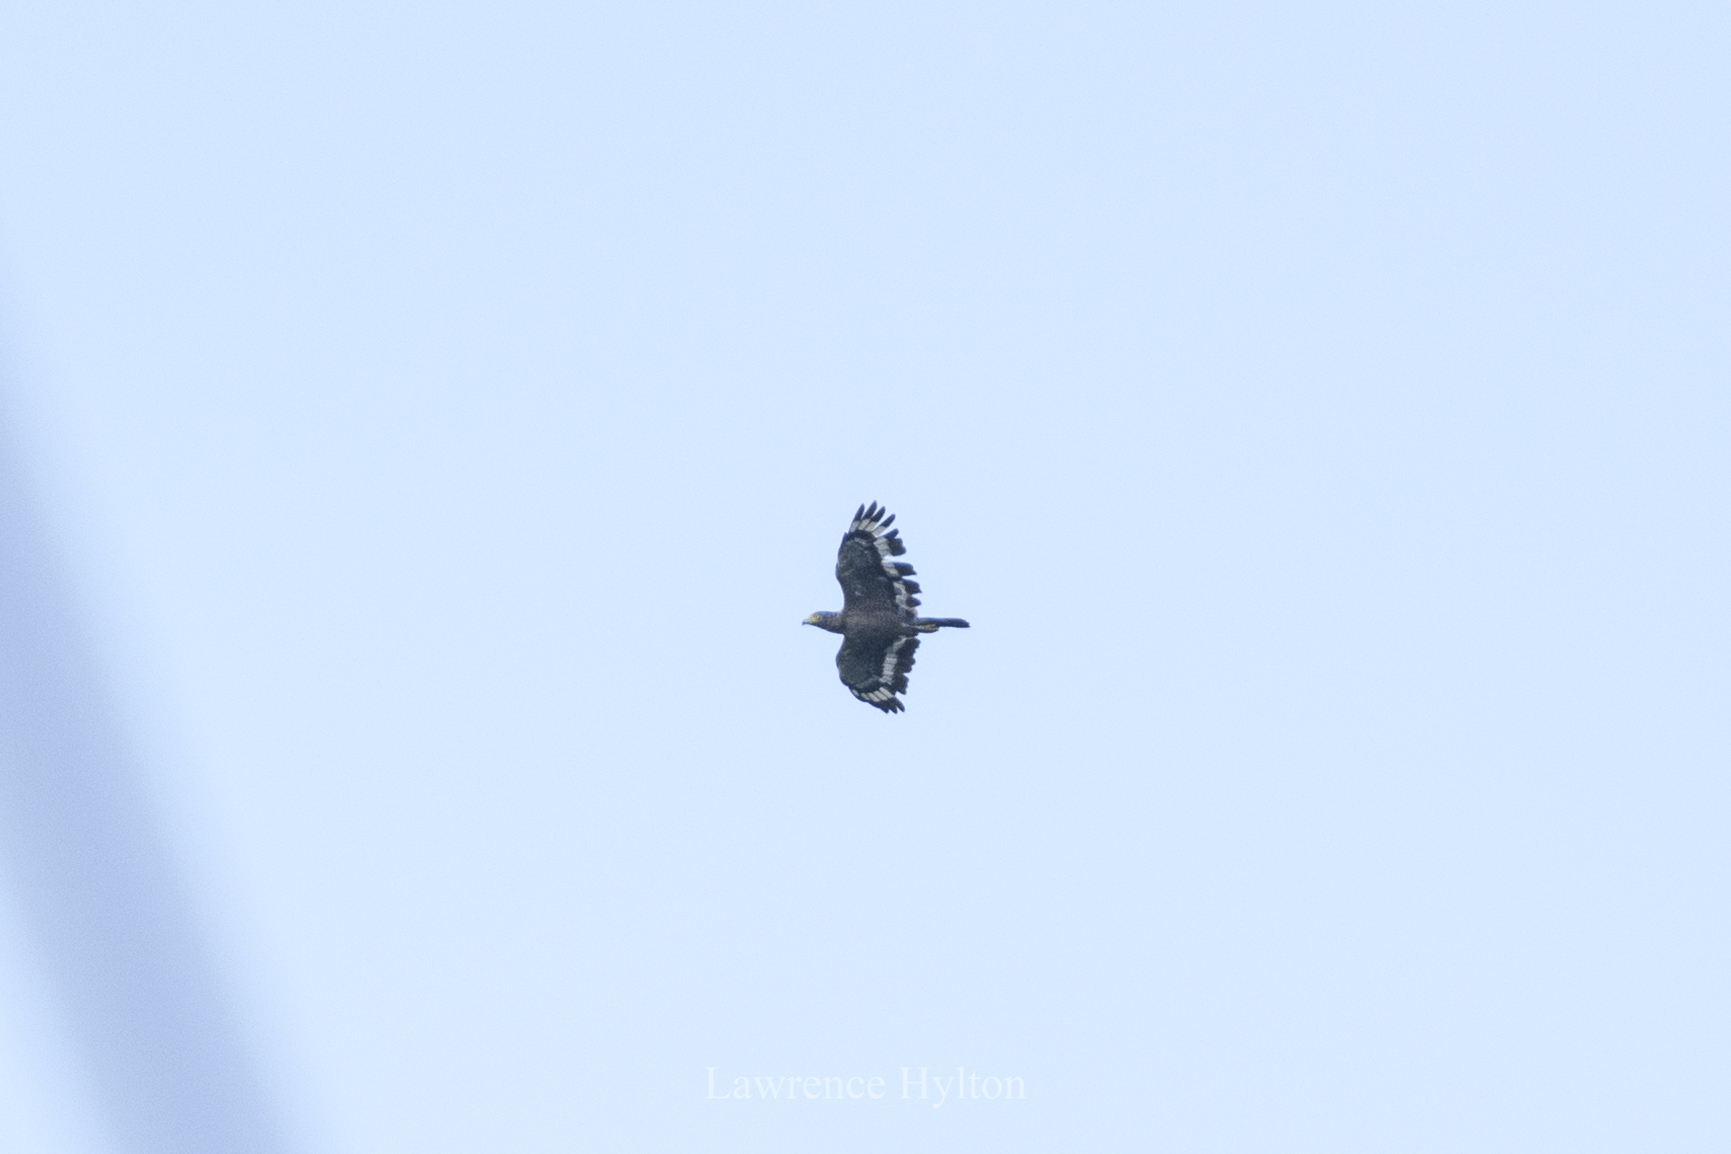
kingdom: Animalia
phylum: Chordata
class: Aves
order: Accipitriformes
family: Accipitridae
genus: Spilornis
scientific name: Spilornis cheela
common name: Crested serpent eagle
